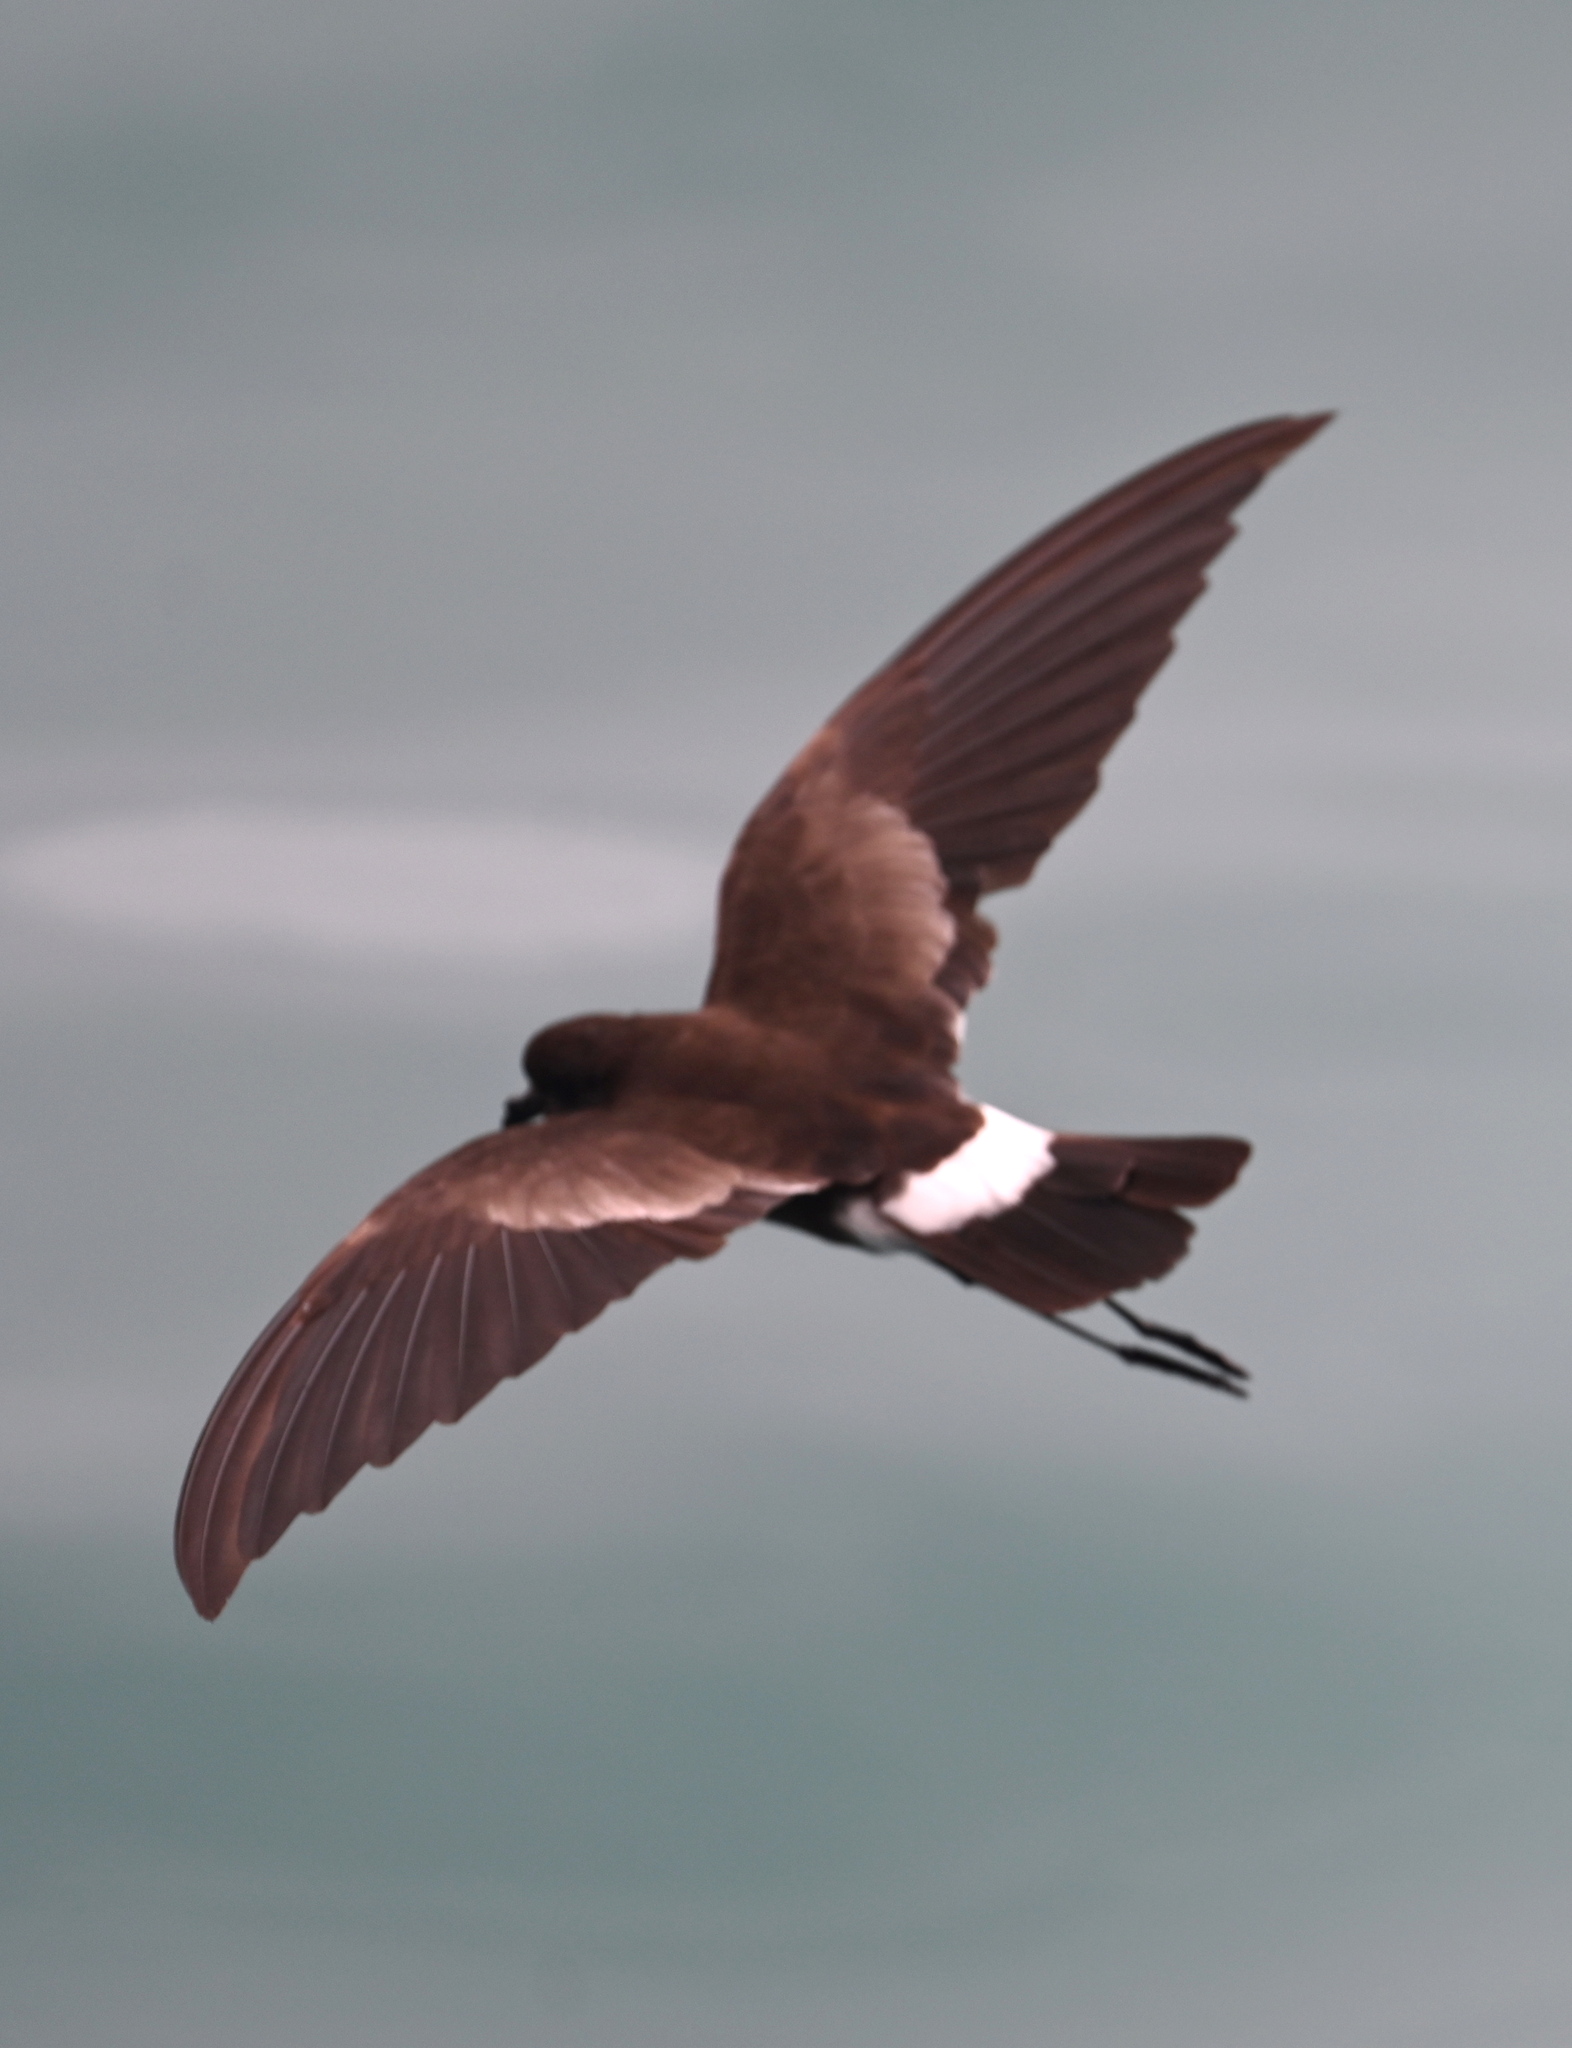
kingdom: Animalia
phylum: Chordata
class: Aves
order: Procellariiformes
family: Hydrobatidae
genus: Oceanites
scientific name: Oceanites gracilis
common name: Elliot's storm-petrel
